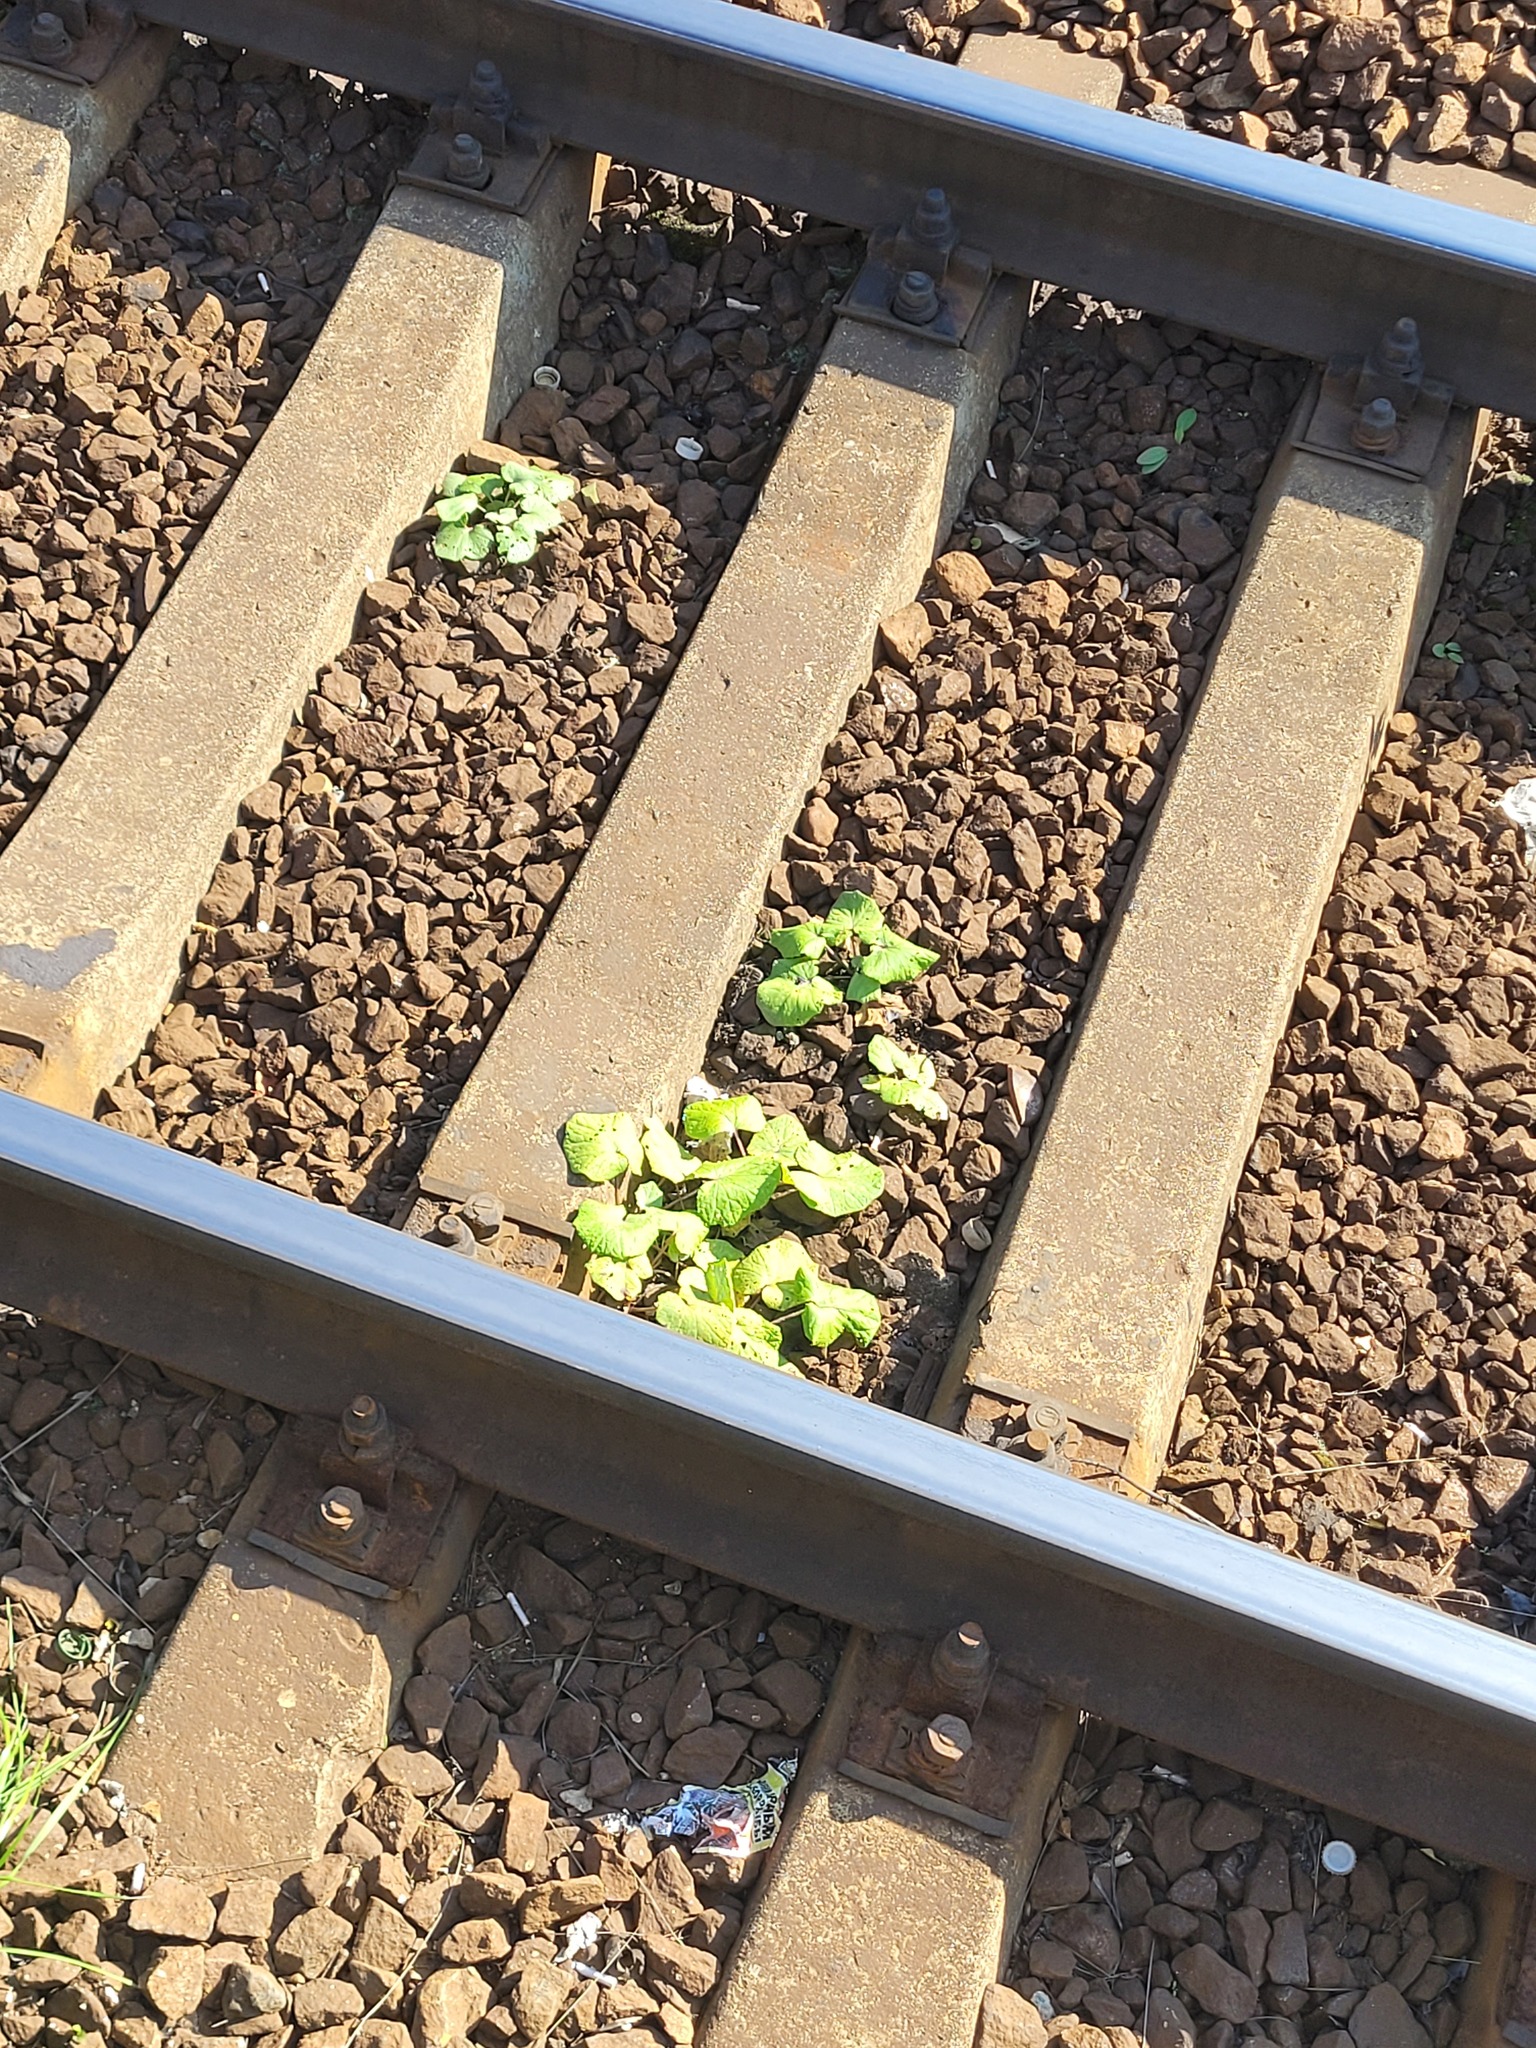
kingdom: Plantae
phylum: Tracheophyta
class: Magnoliopsida
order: Asterales
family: Asteraceae
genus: Tussilago
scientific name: Tussilago farfara
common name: Coltsfoot
